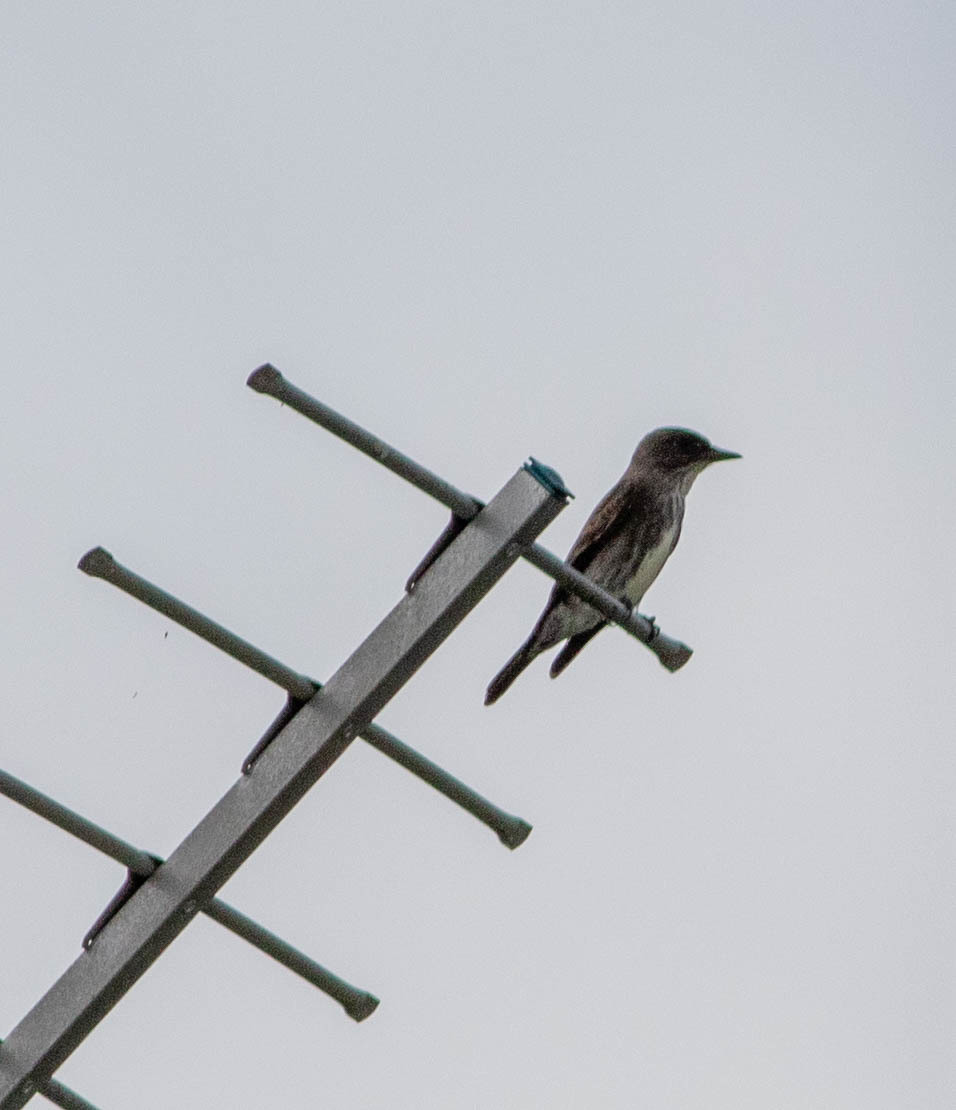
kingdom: Animalia
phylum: Chordata
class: Aves
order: Passeriformes
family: Tyrannidae
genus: Contopus
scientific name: Contopus cooperi
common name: Olive-sided flycatcher
